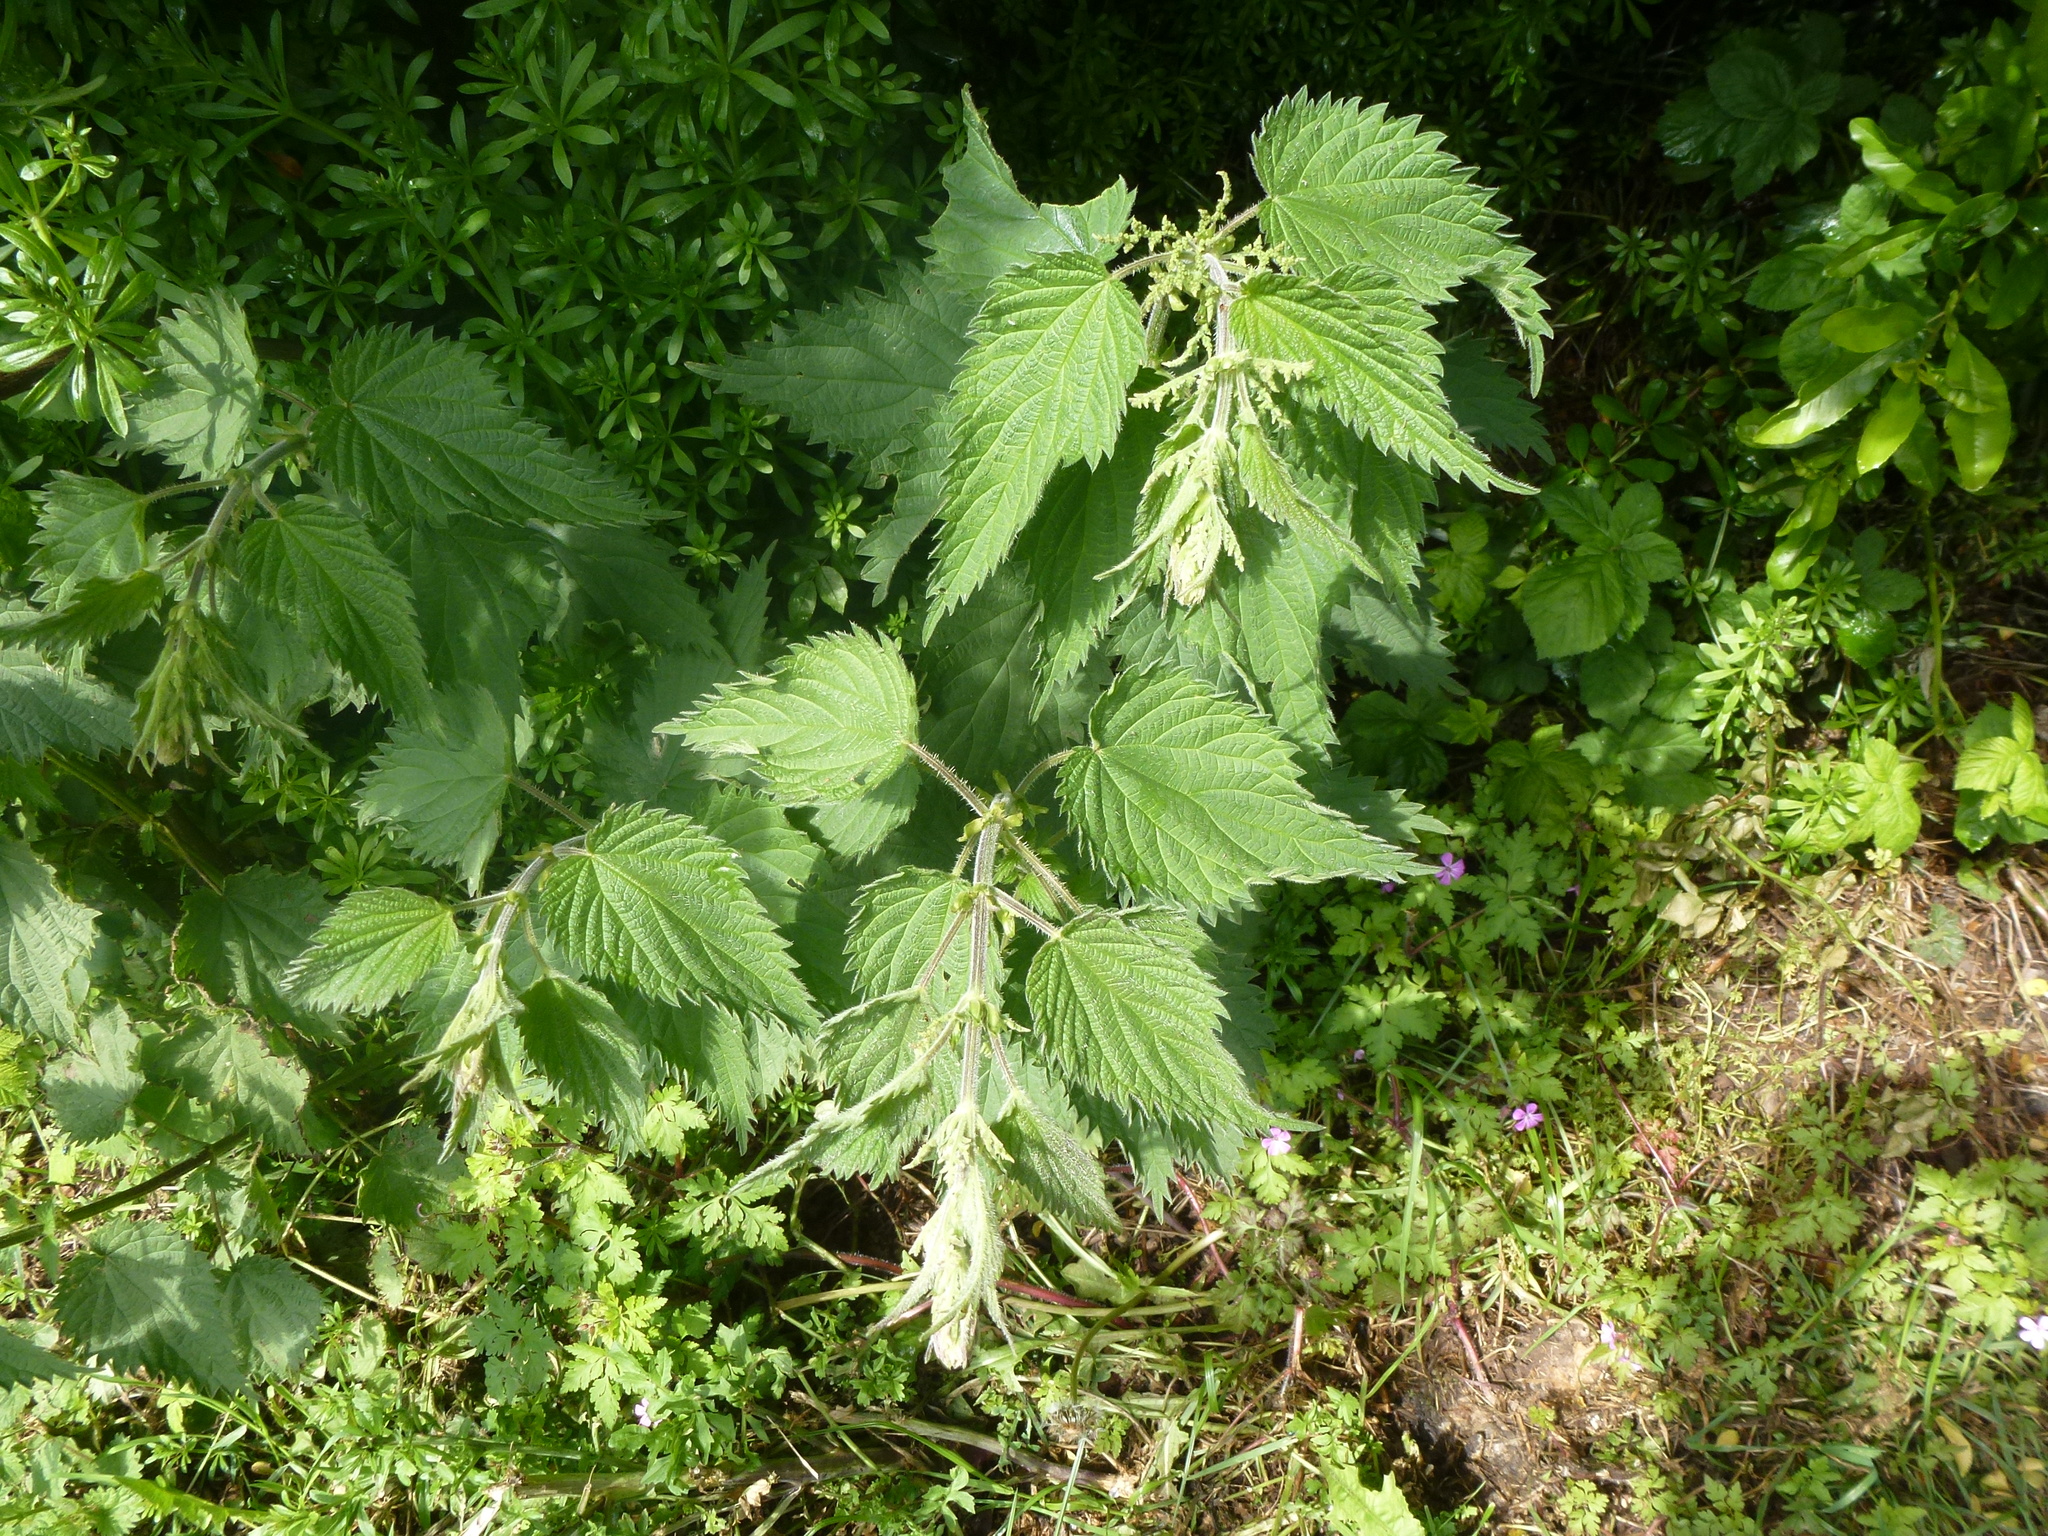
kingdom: Plantae
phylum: Tracheophyta
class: Magnoliopsida
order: Rosales
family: Urticaceae
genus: Urtica
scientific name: Urtica dioica
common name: Common nettle
